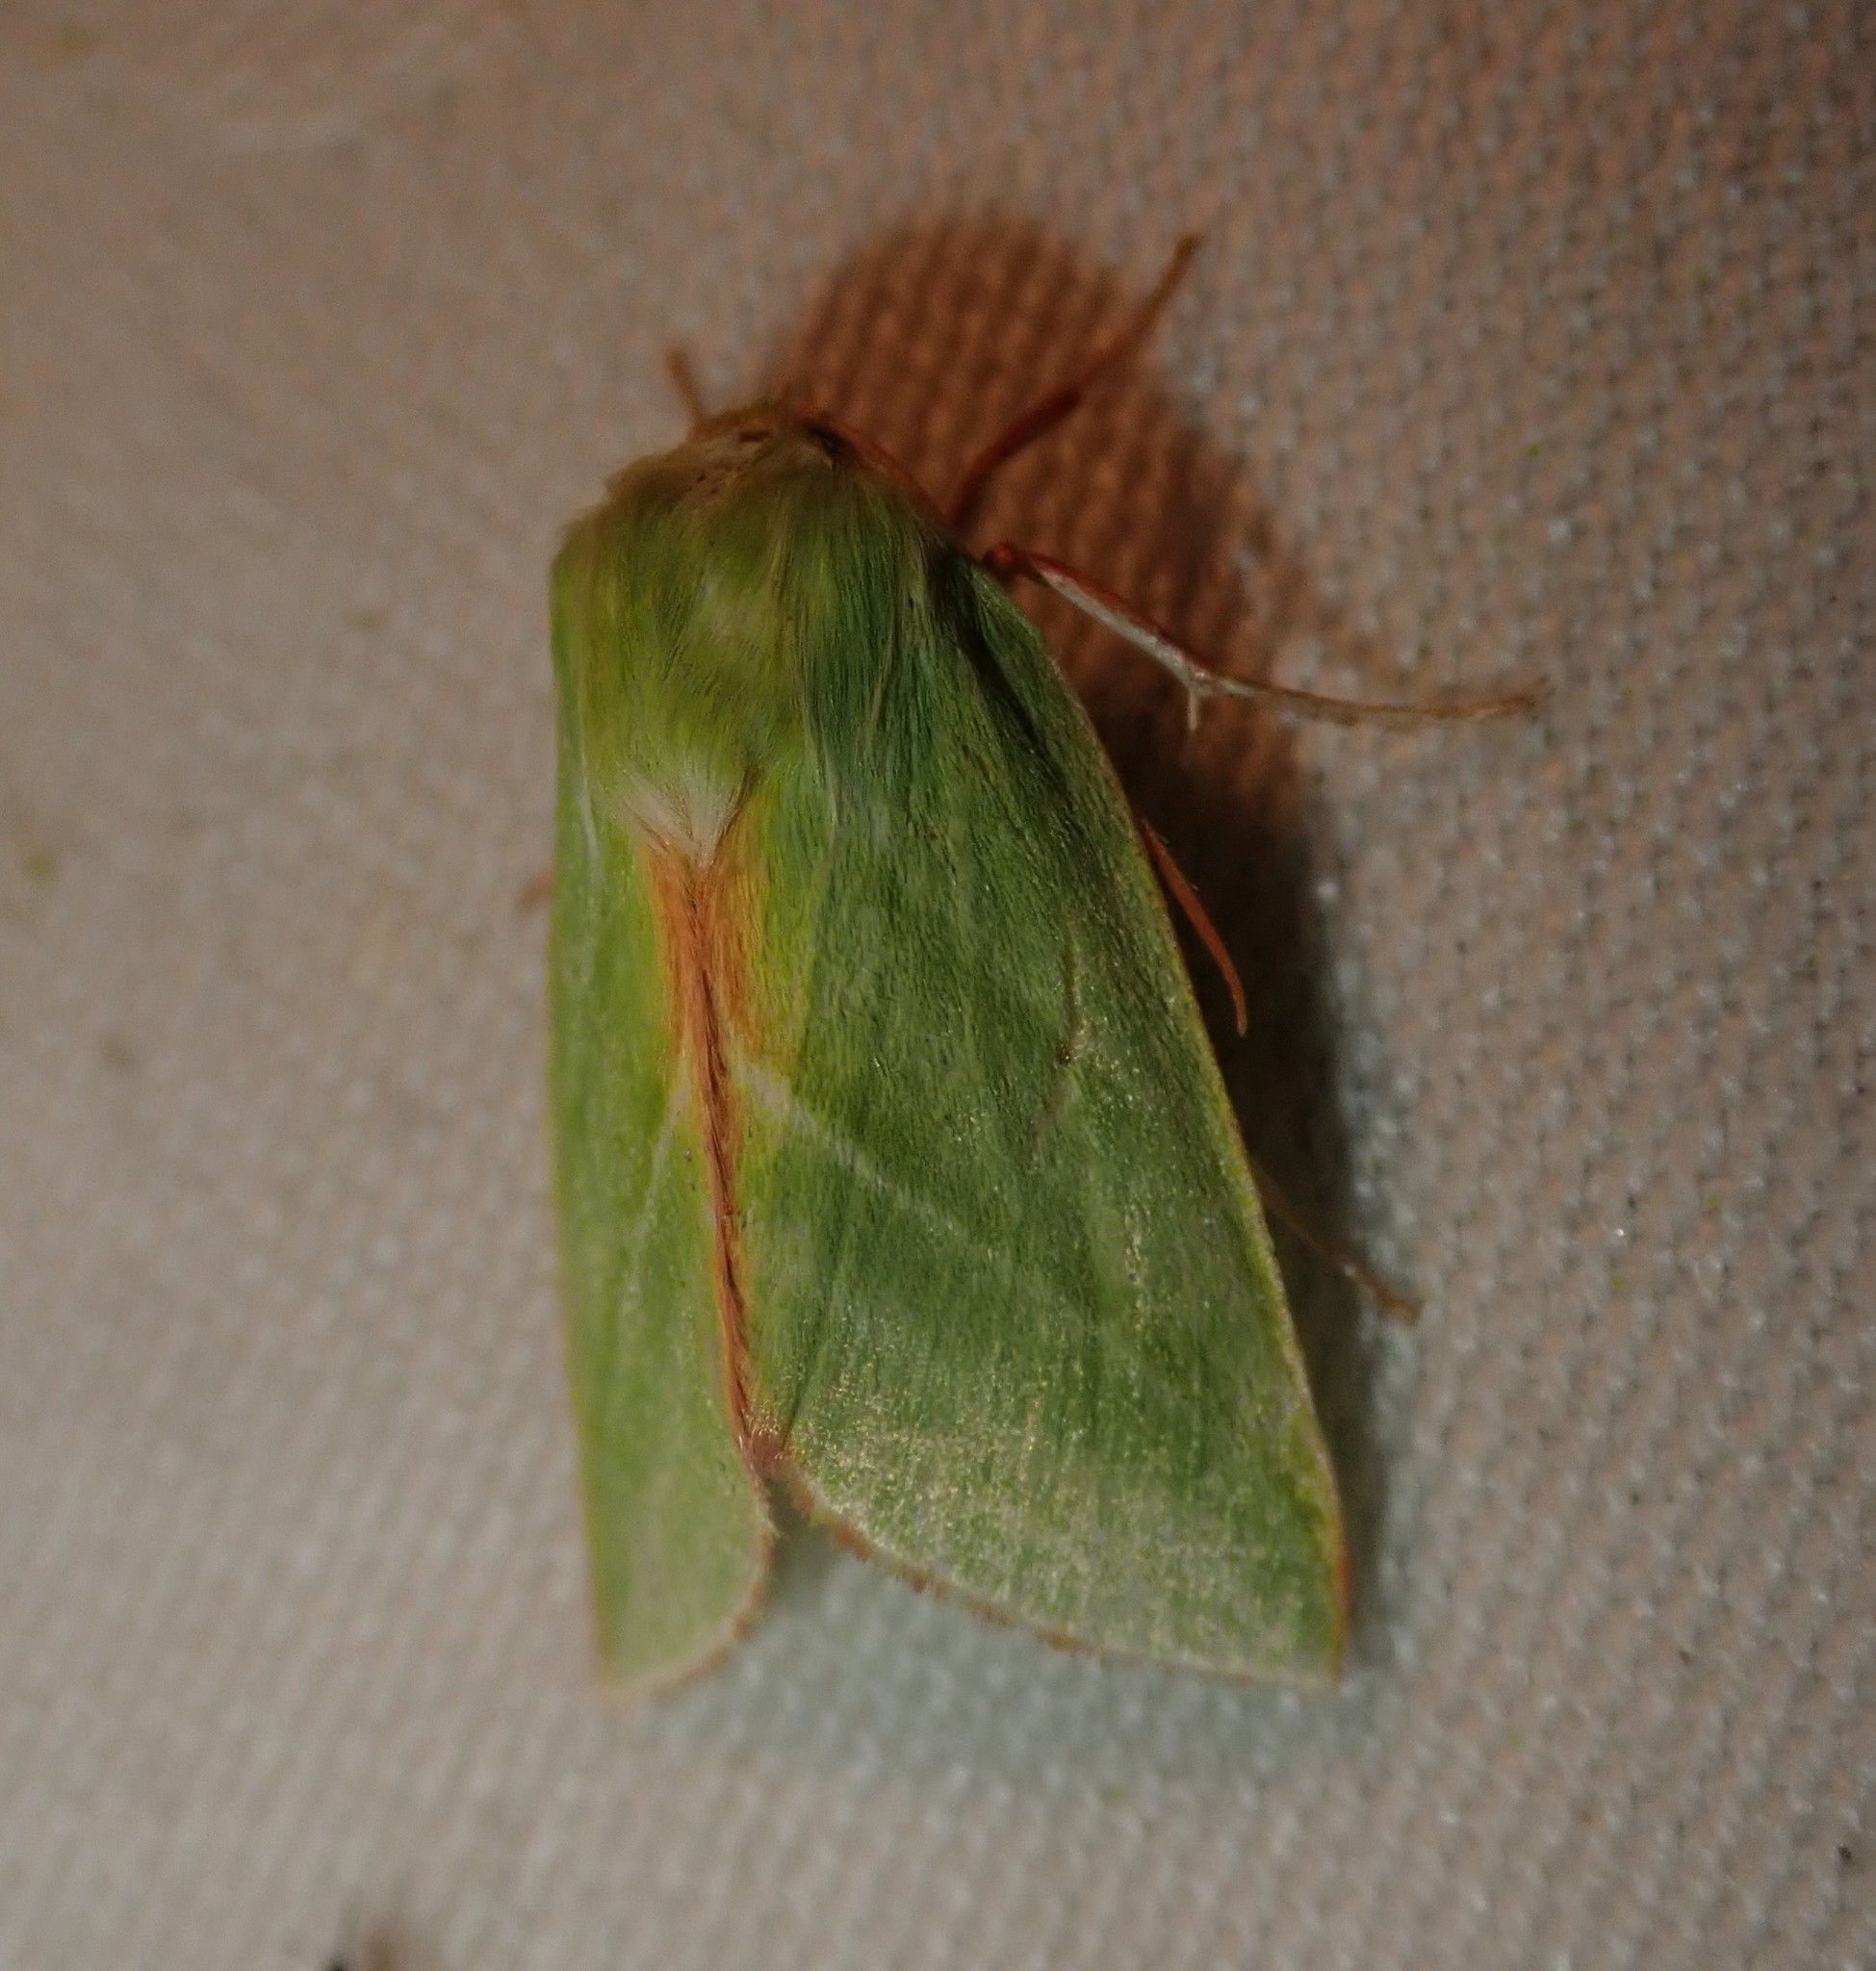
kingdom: Animalia
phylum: Arthropoda
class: Insecta
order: Lepidoptera
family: Nolidae
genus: Pseudoips
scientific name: Pseudoips prasinana
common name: Green silver-lines
